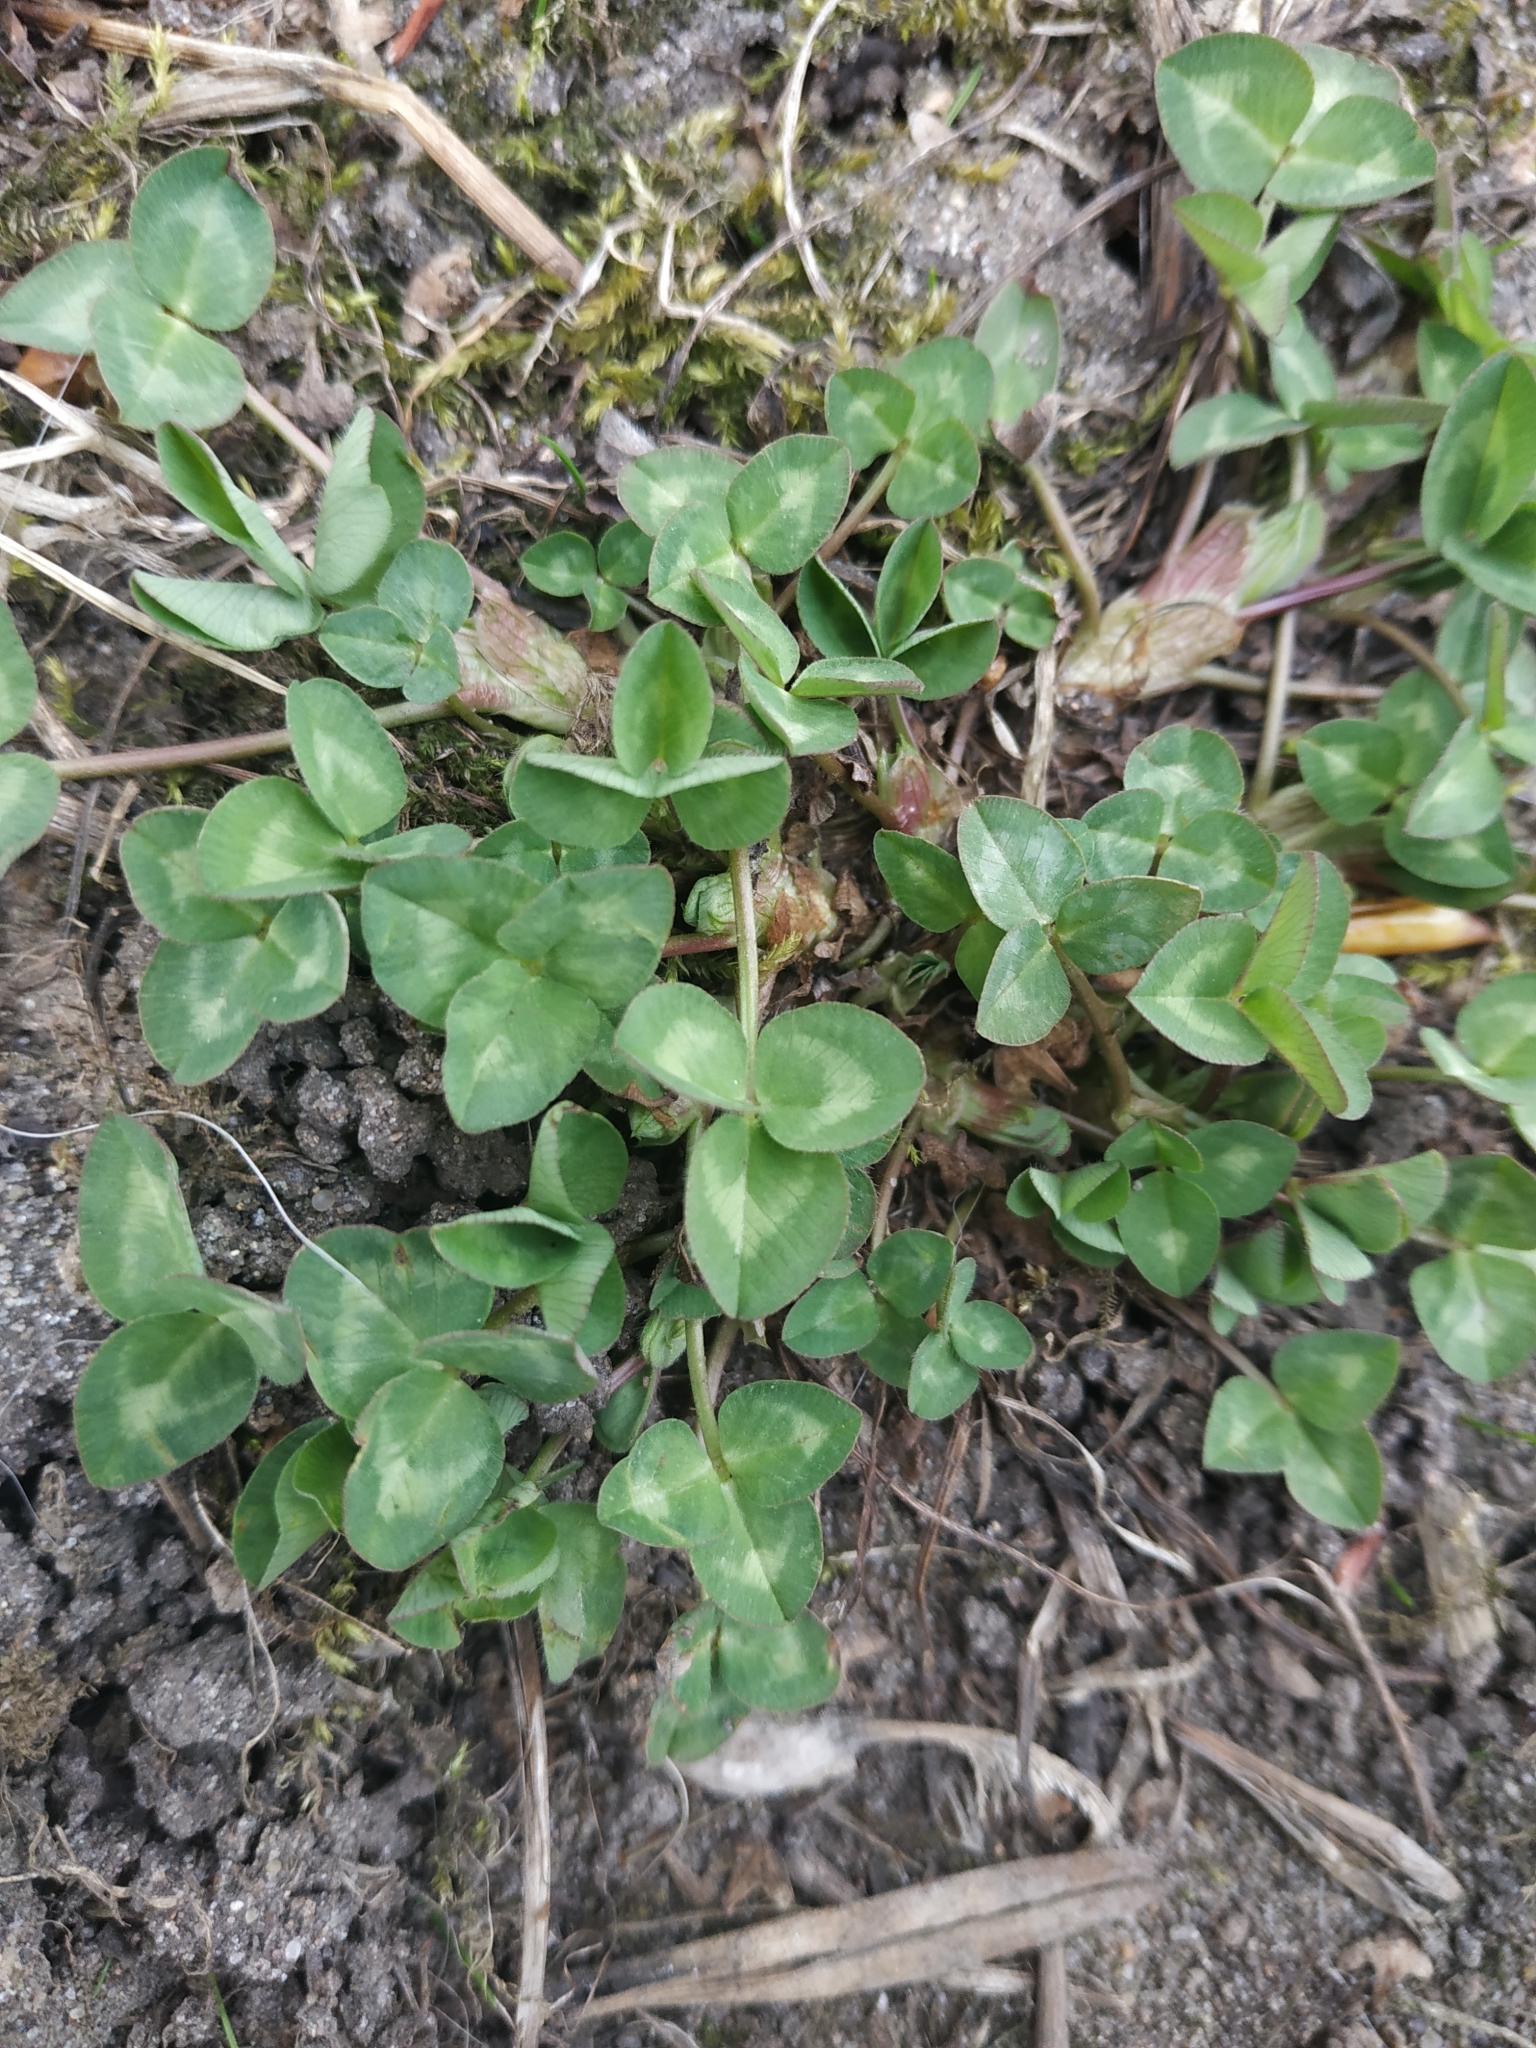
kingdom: Plantae
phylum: Tracheophyta
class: Magnoliopsida
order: Fabales
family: Fabaceae
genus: Trifolium
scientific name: Trifolium repens
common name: White clover
